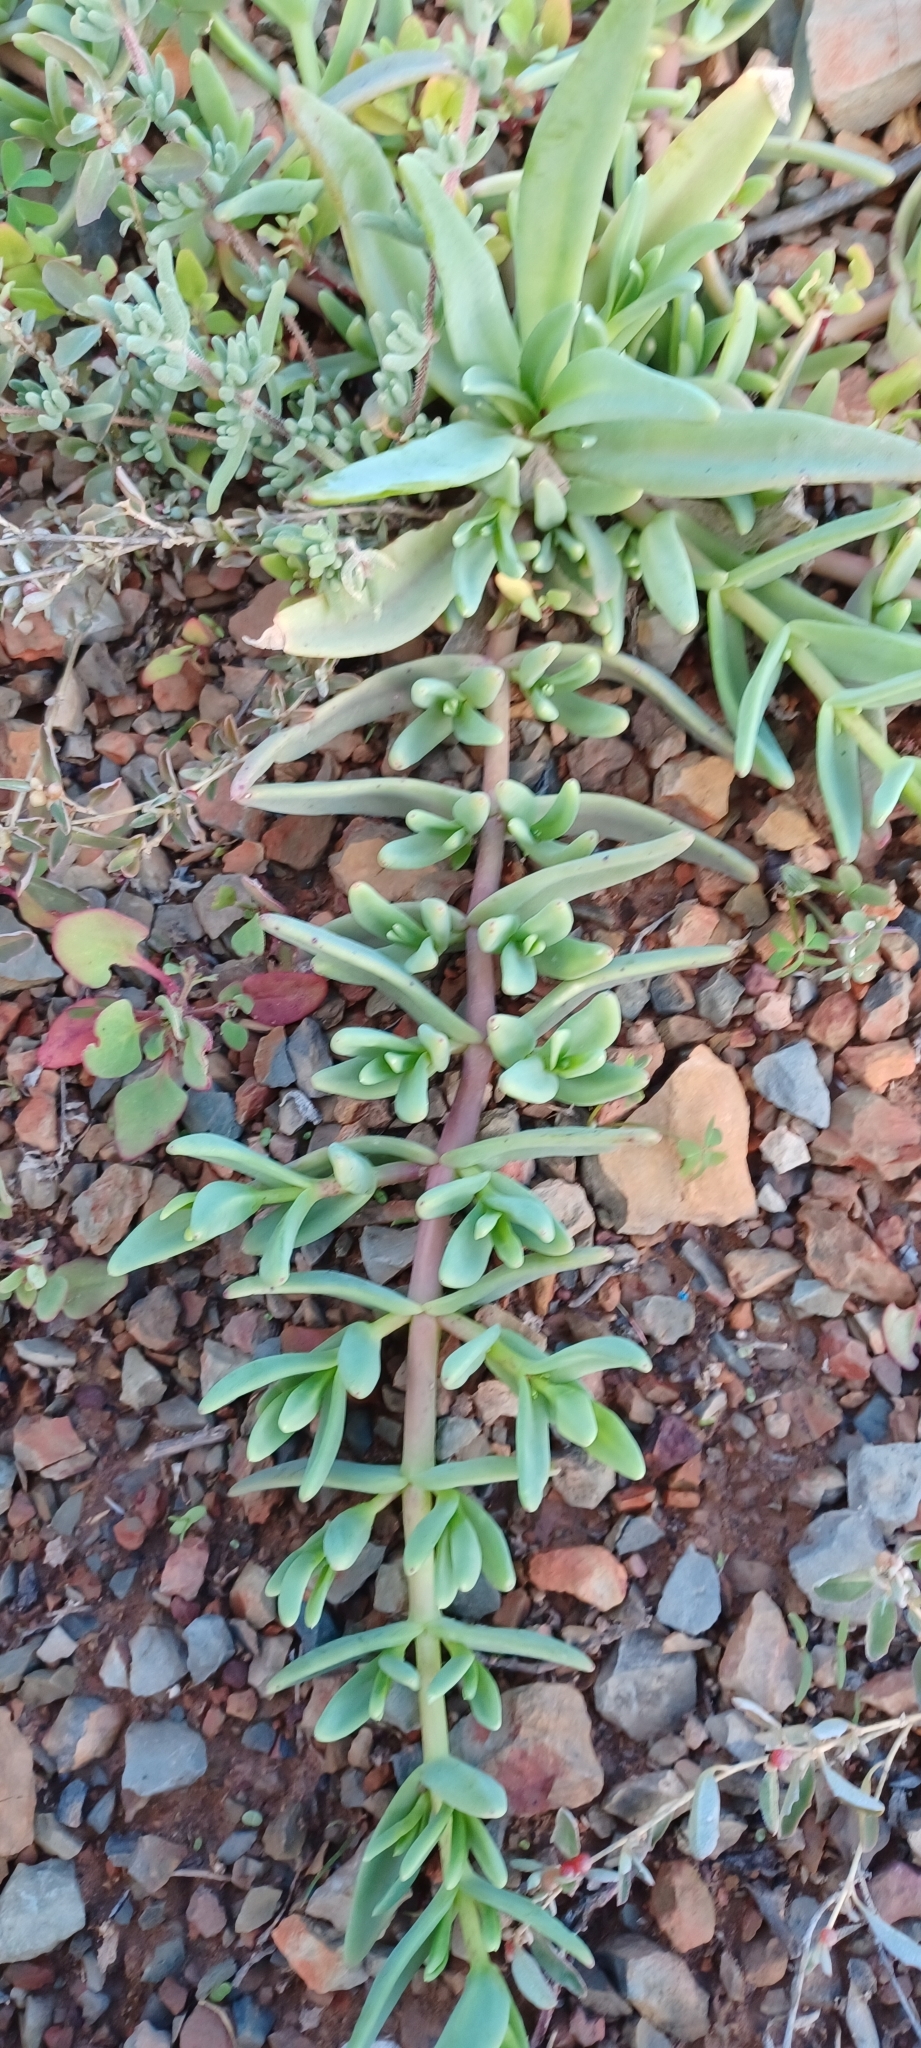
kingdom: Plantae
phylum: Tracheophyta
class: Magnoliopsida
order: Caryophyllales
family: Aizoaceae
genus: Mesembryanthemum
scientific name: Mesembryanthemum pallens
